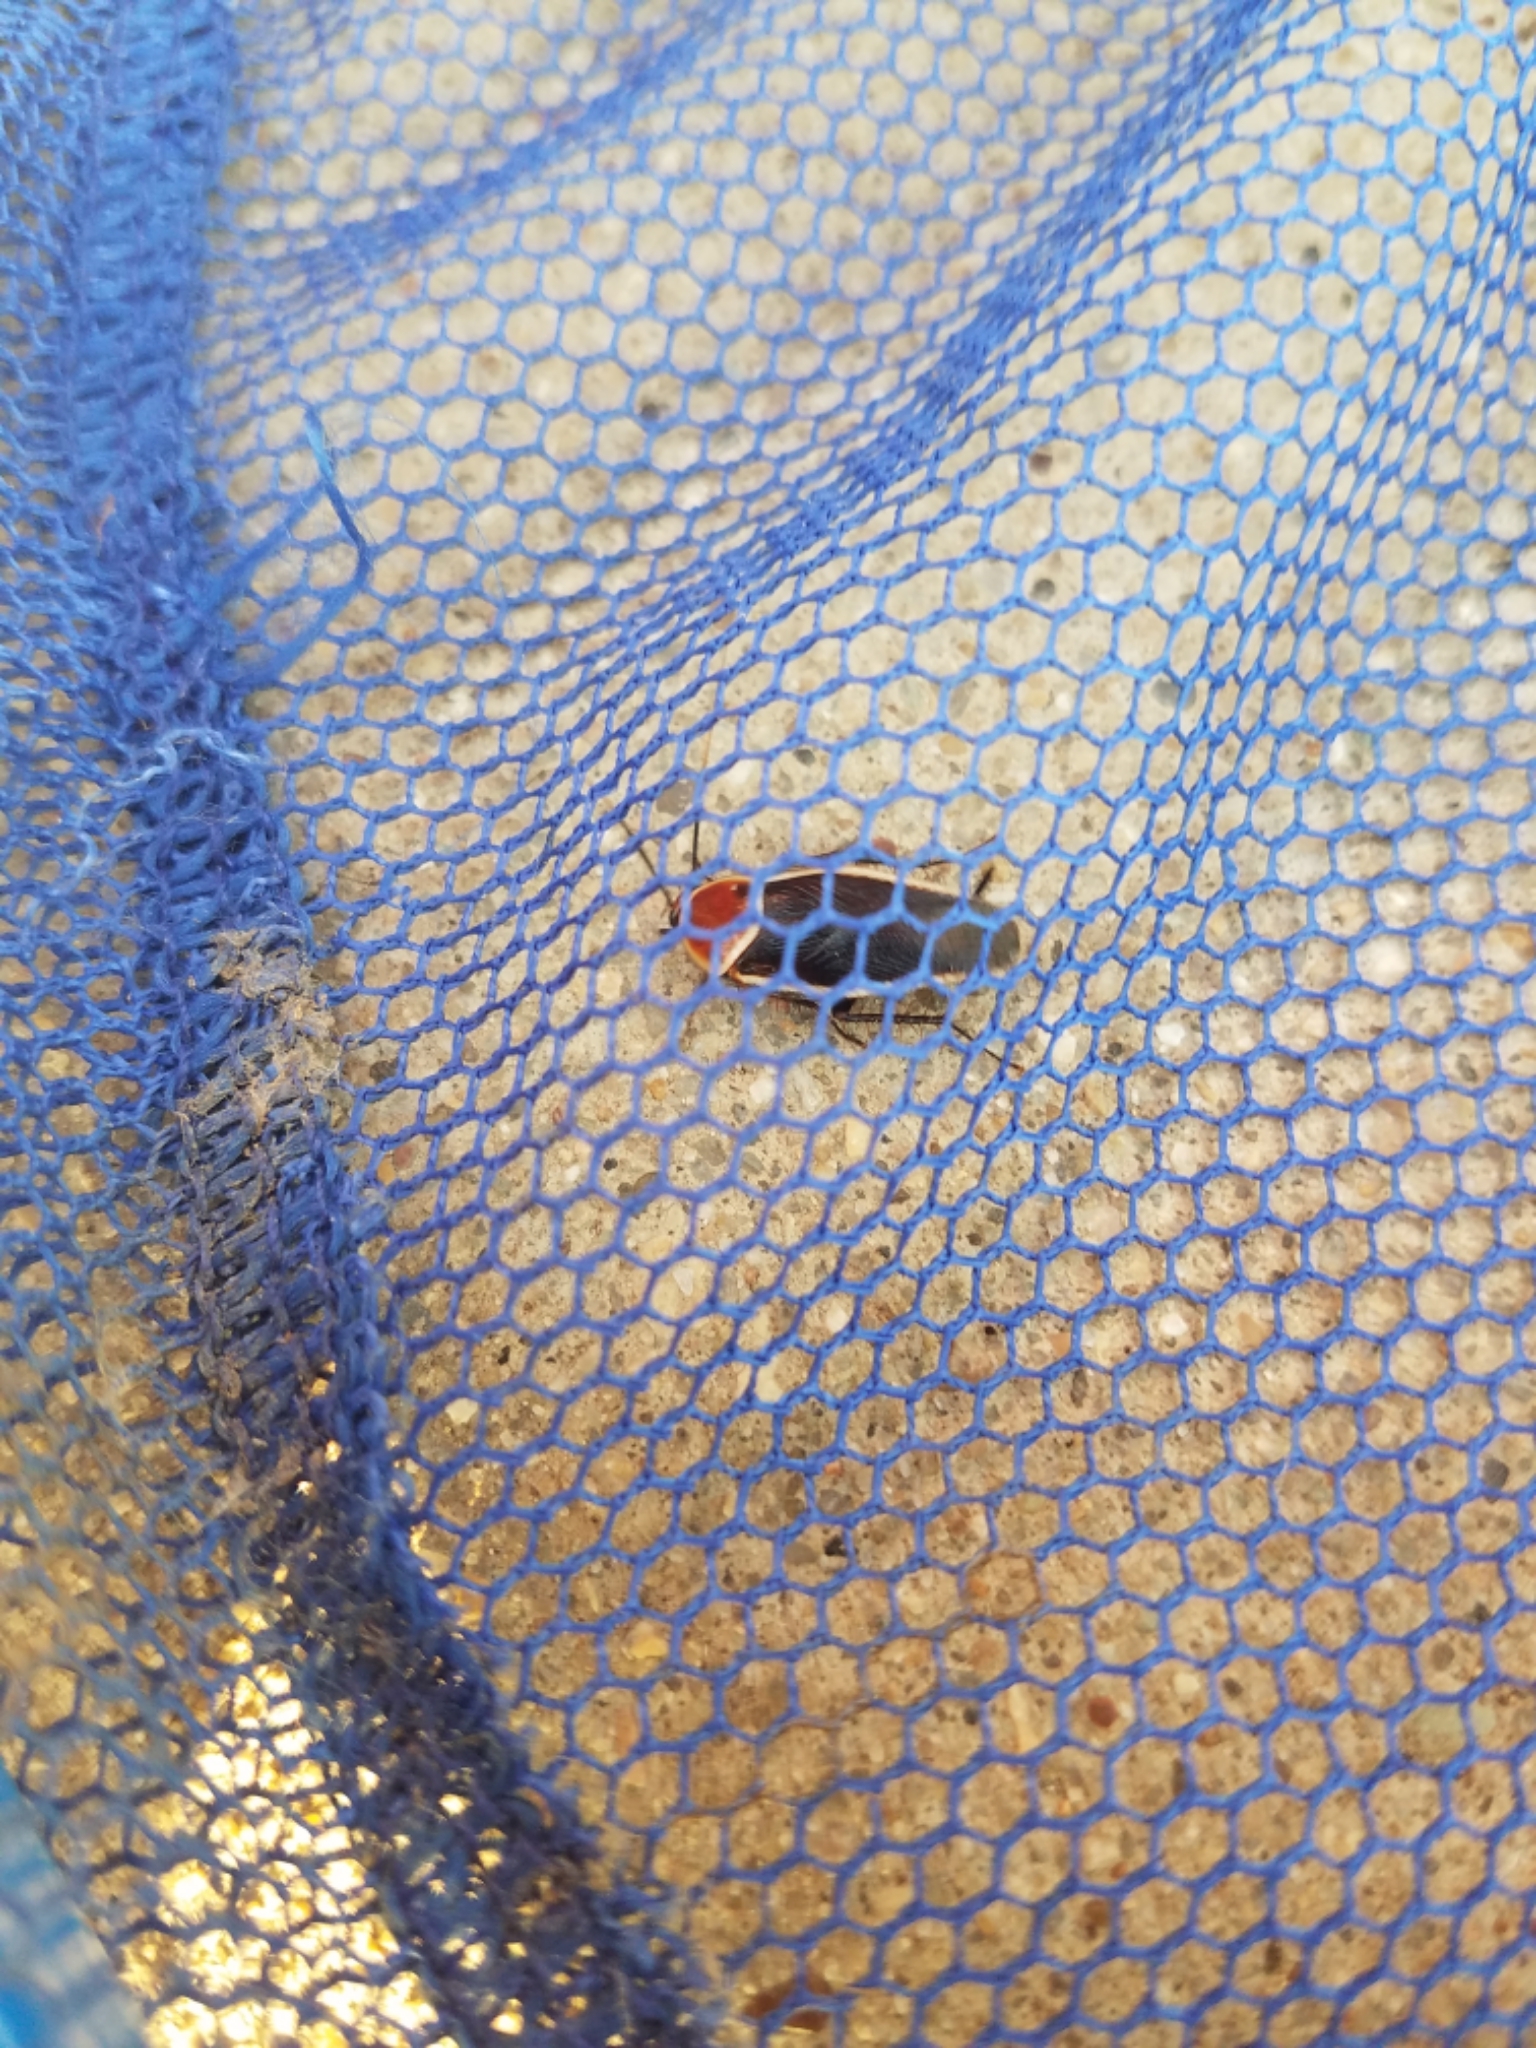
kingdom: Animalia
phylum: Arthropoda
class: Insecta
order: Blattodea
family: Ectobiidae
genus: Pseudomops
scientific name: Pseudomops septentrionalis
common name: Pale-bordered field cockroach
